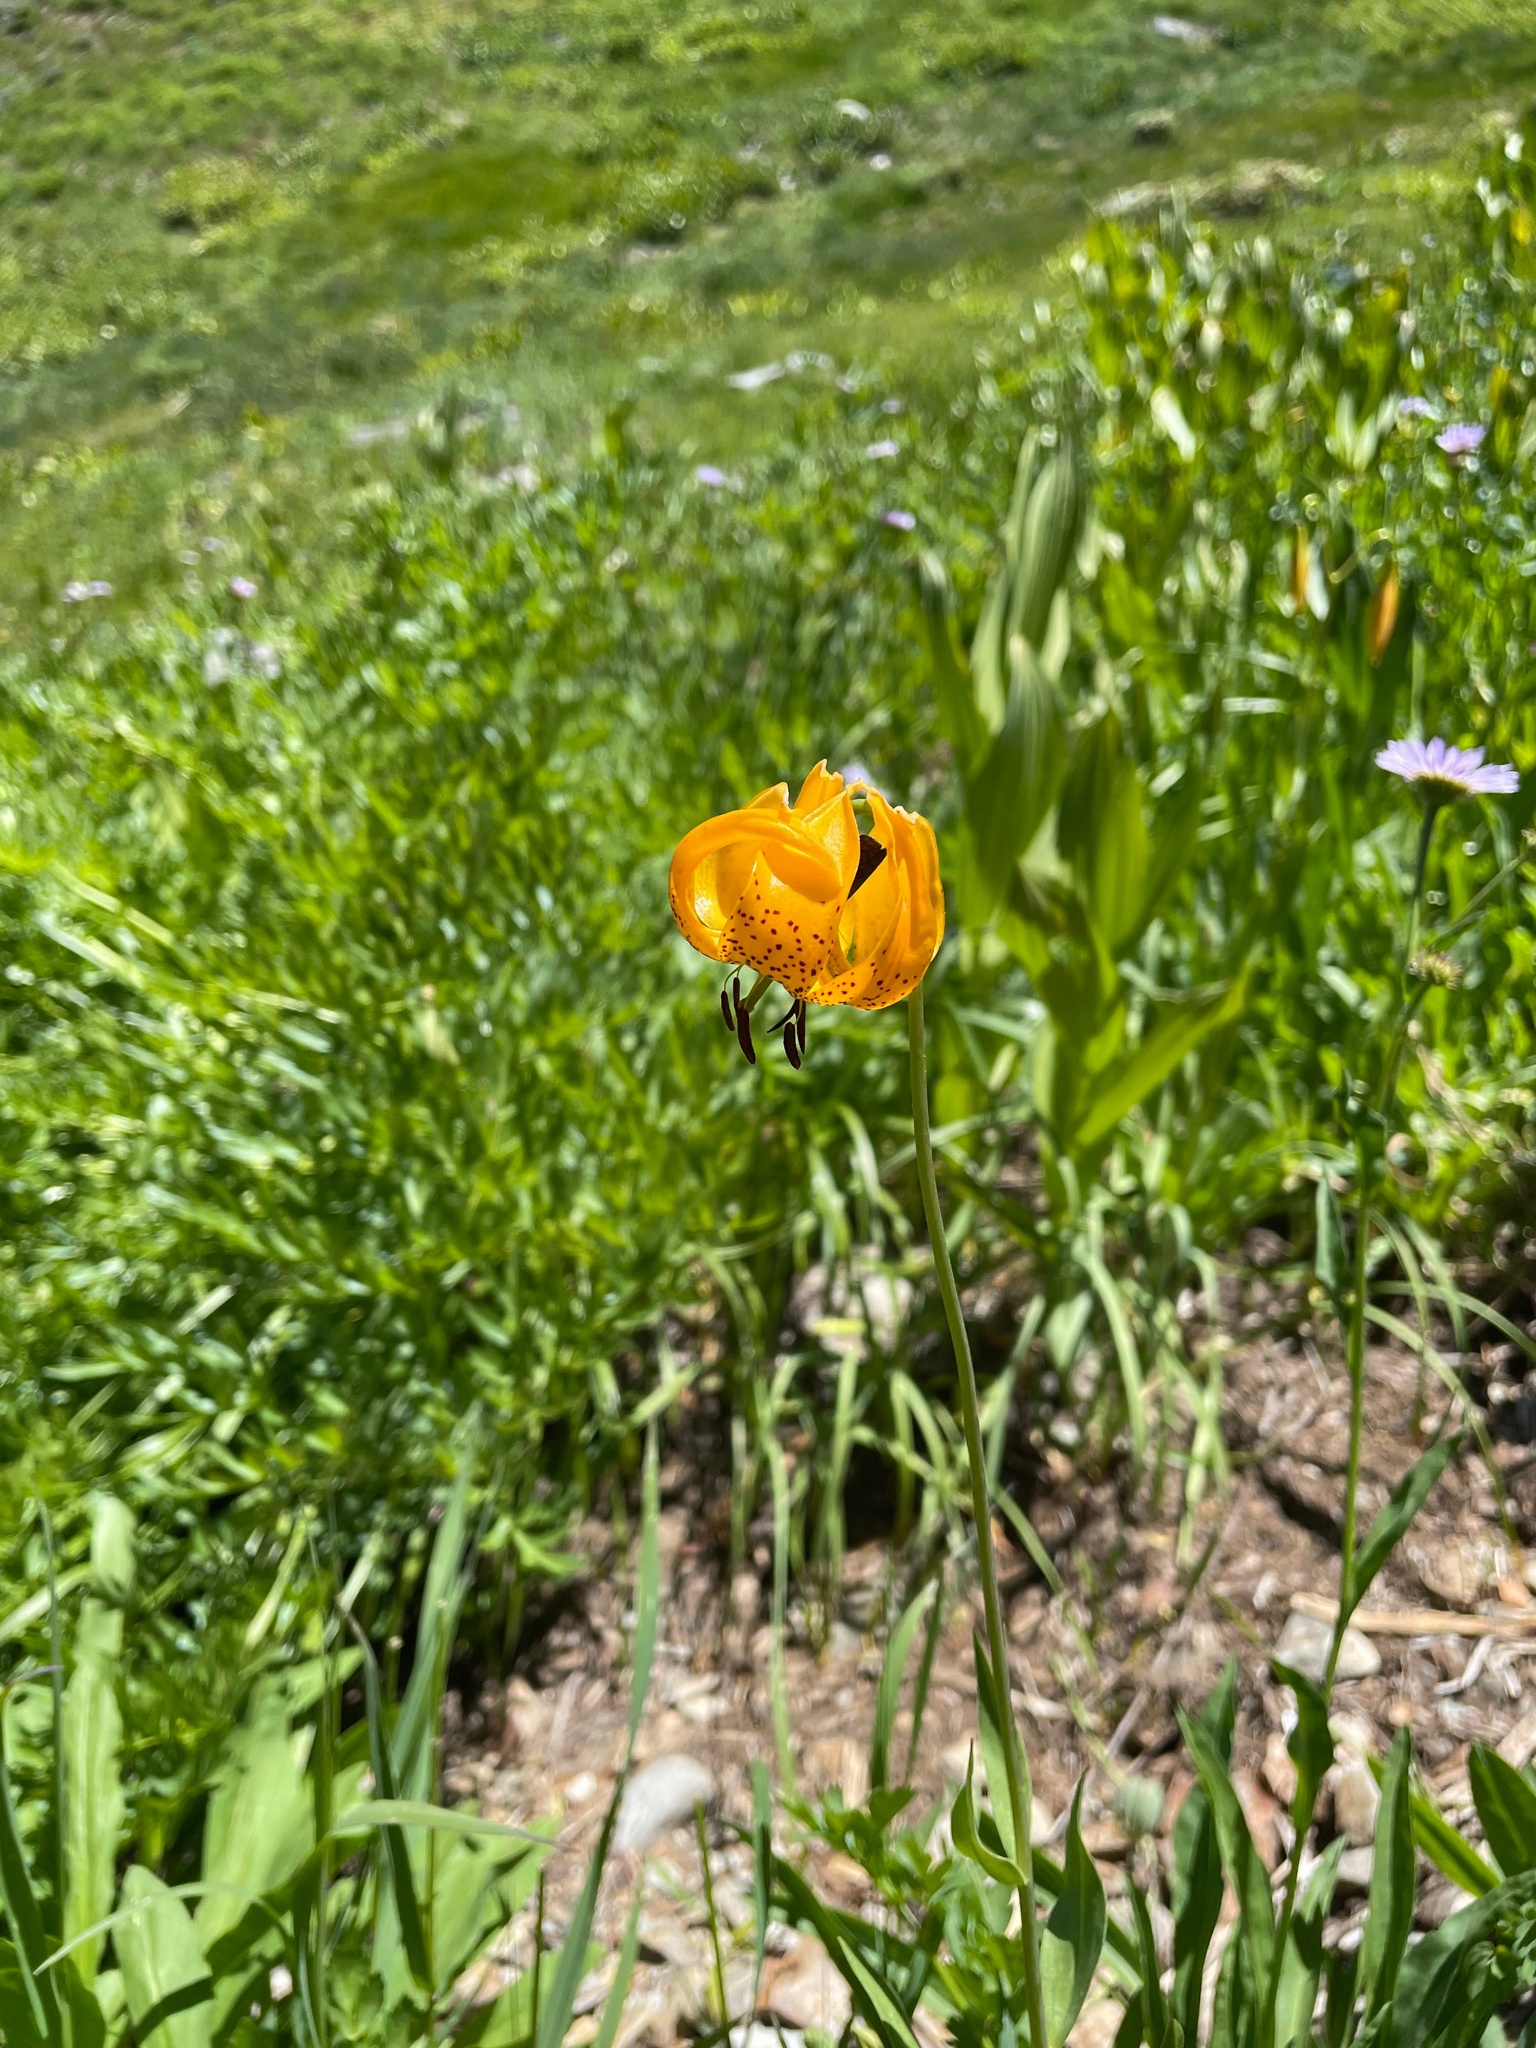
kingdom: Plantae
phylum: Tracheophyta
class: Liliopsida
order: Liliales
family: Liliaceae
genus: Lilium
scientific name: Lilium kelleyanum
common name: Kelley's lily
